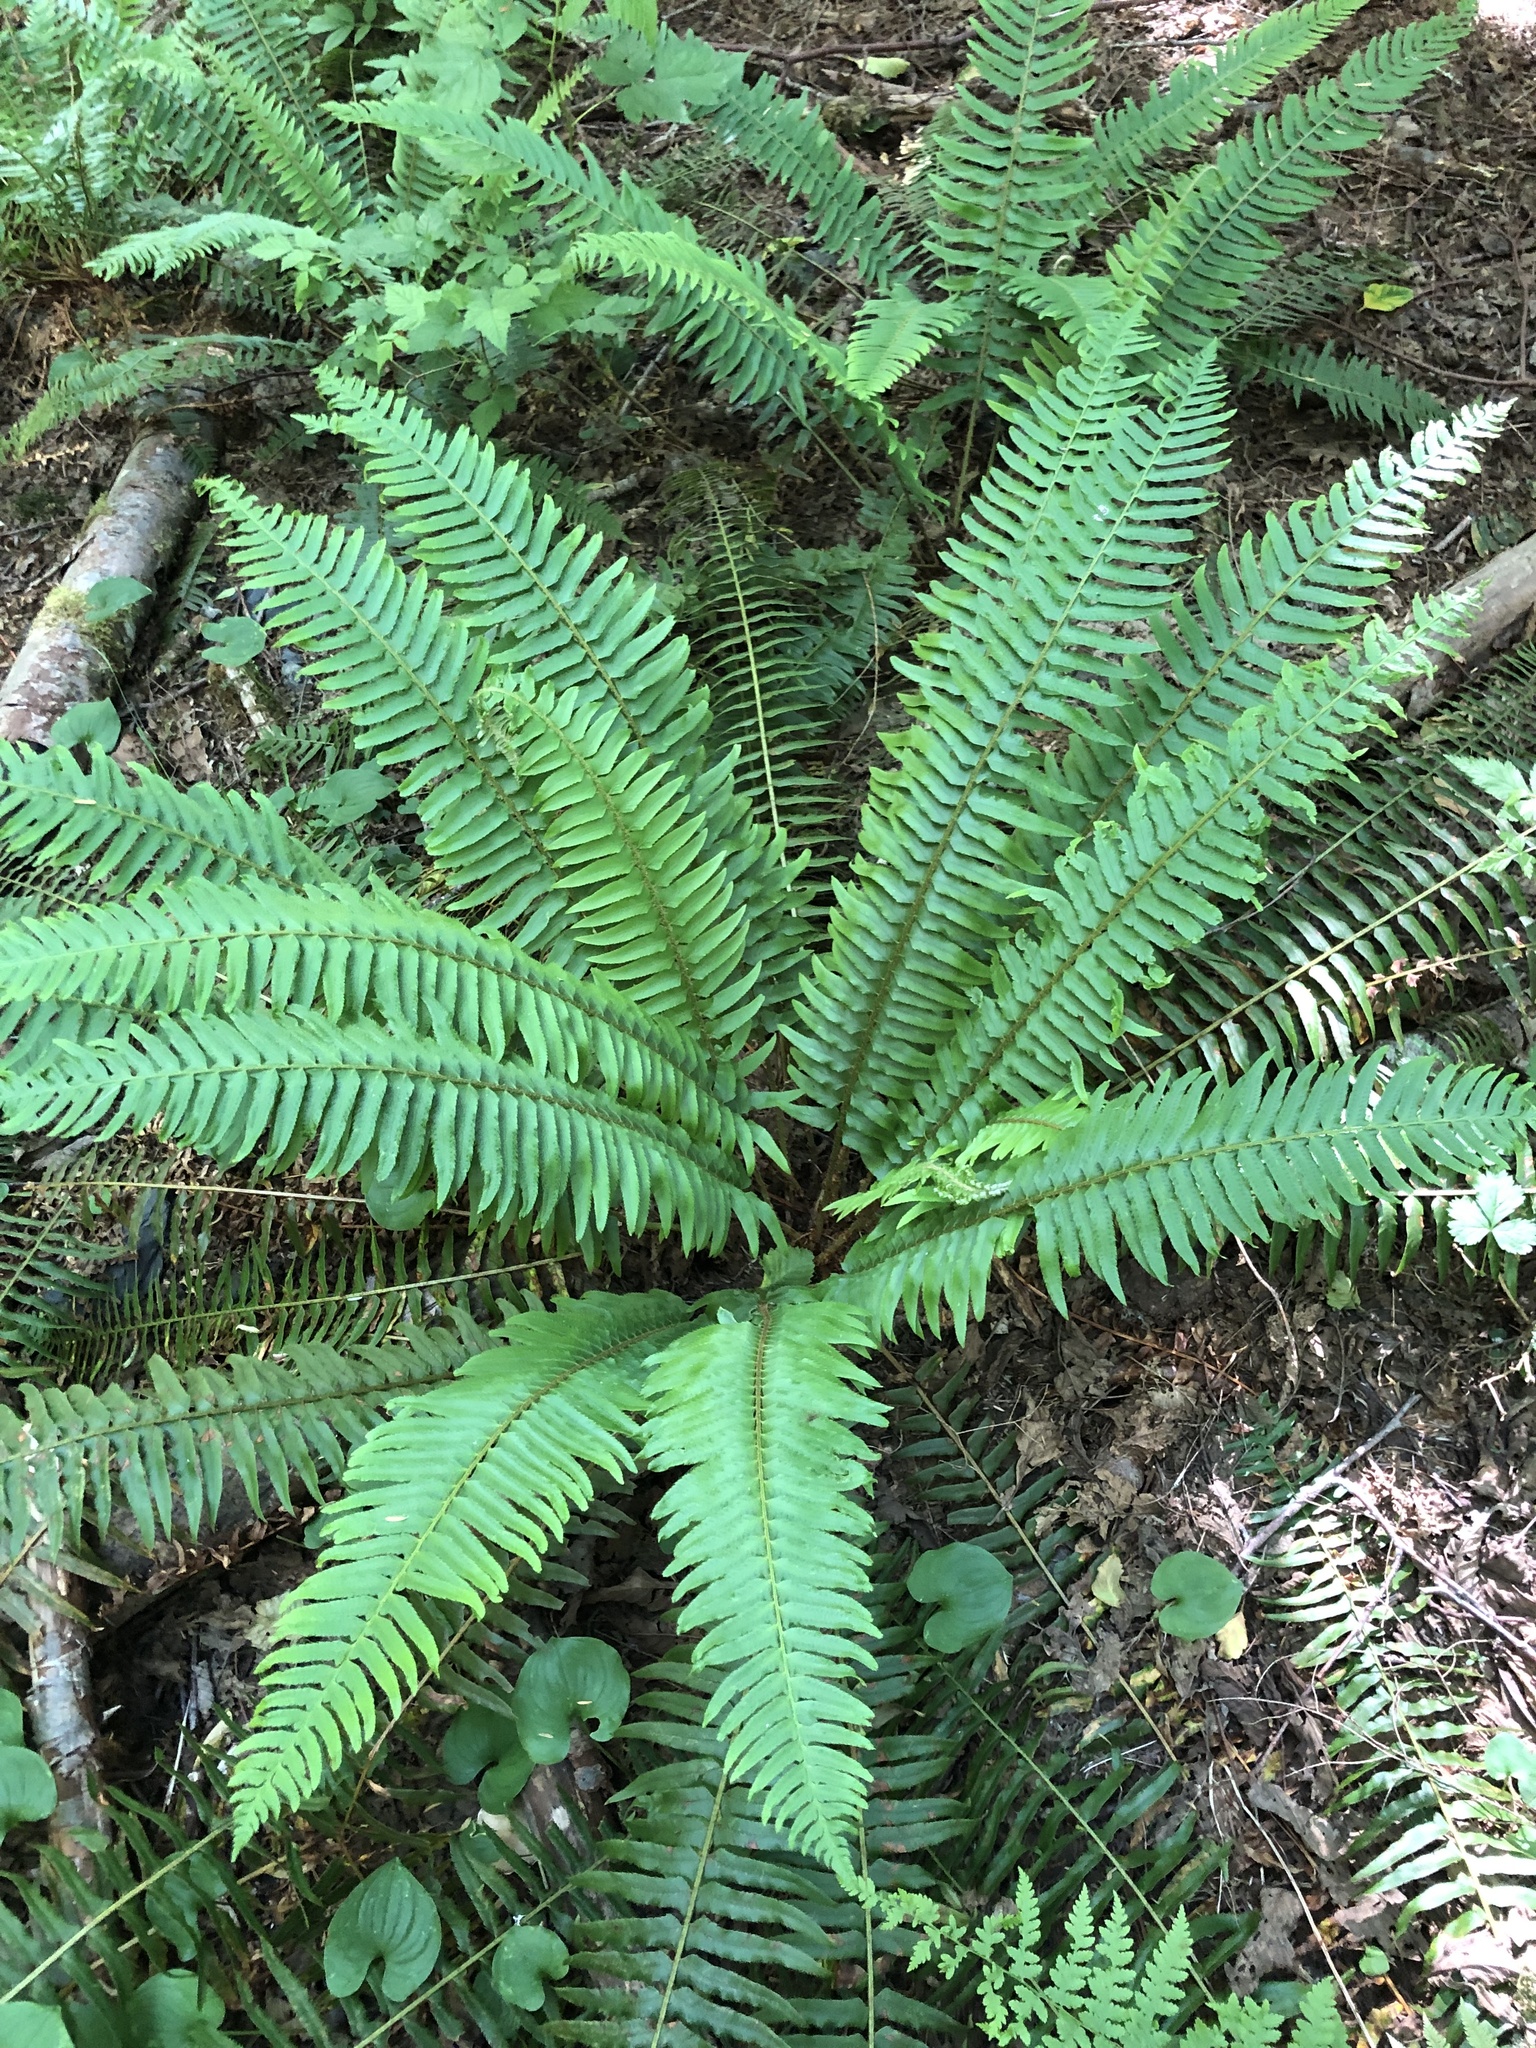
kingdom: Plantae
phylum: Tracheophyta
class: Polypodiopsida
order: Polypodiales
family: Dryopteridaceae
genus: Polystichum
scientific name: Polystichum munitum
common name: Western sword-fern
